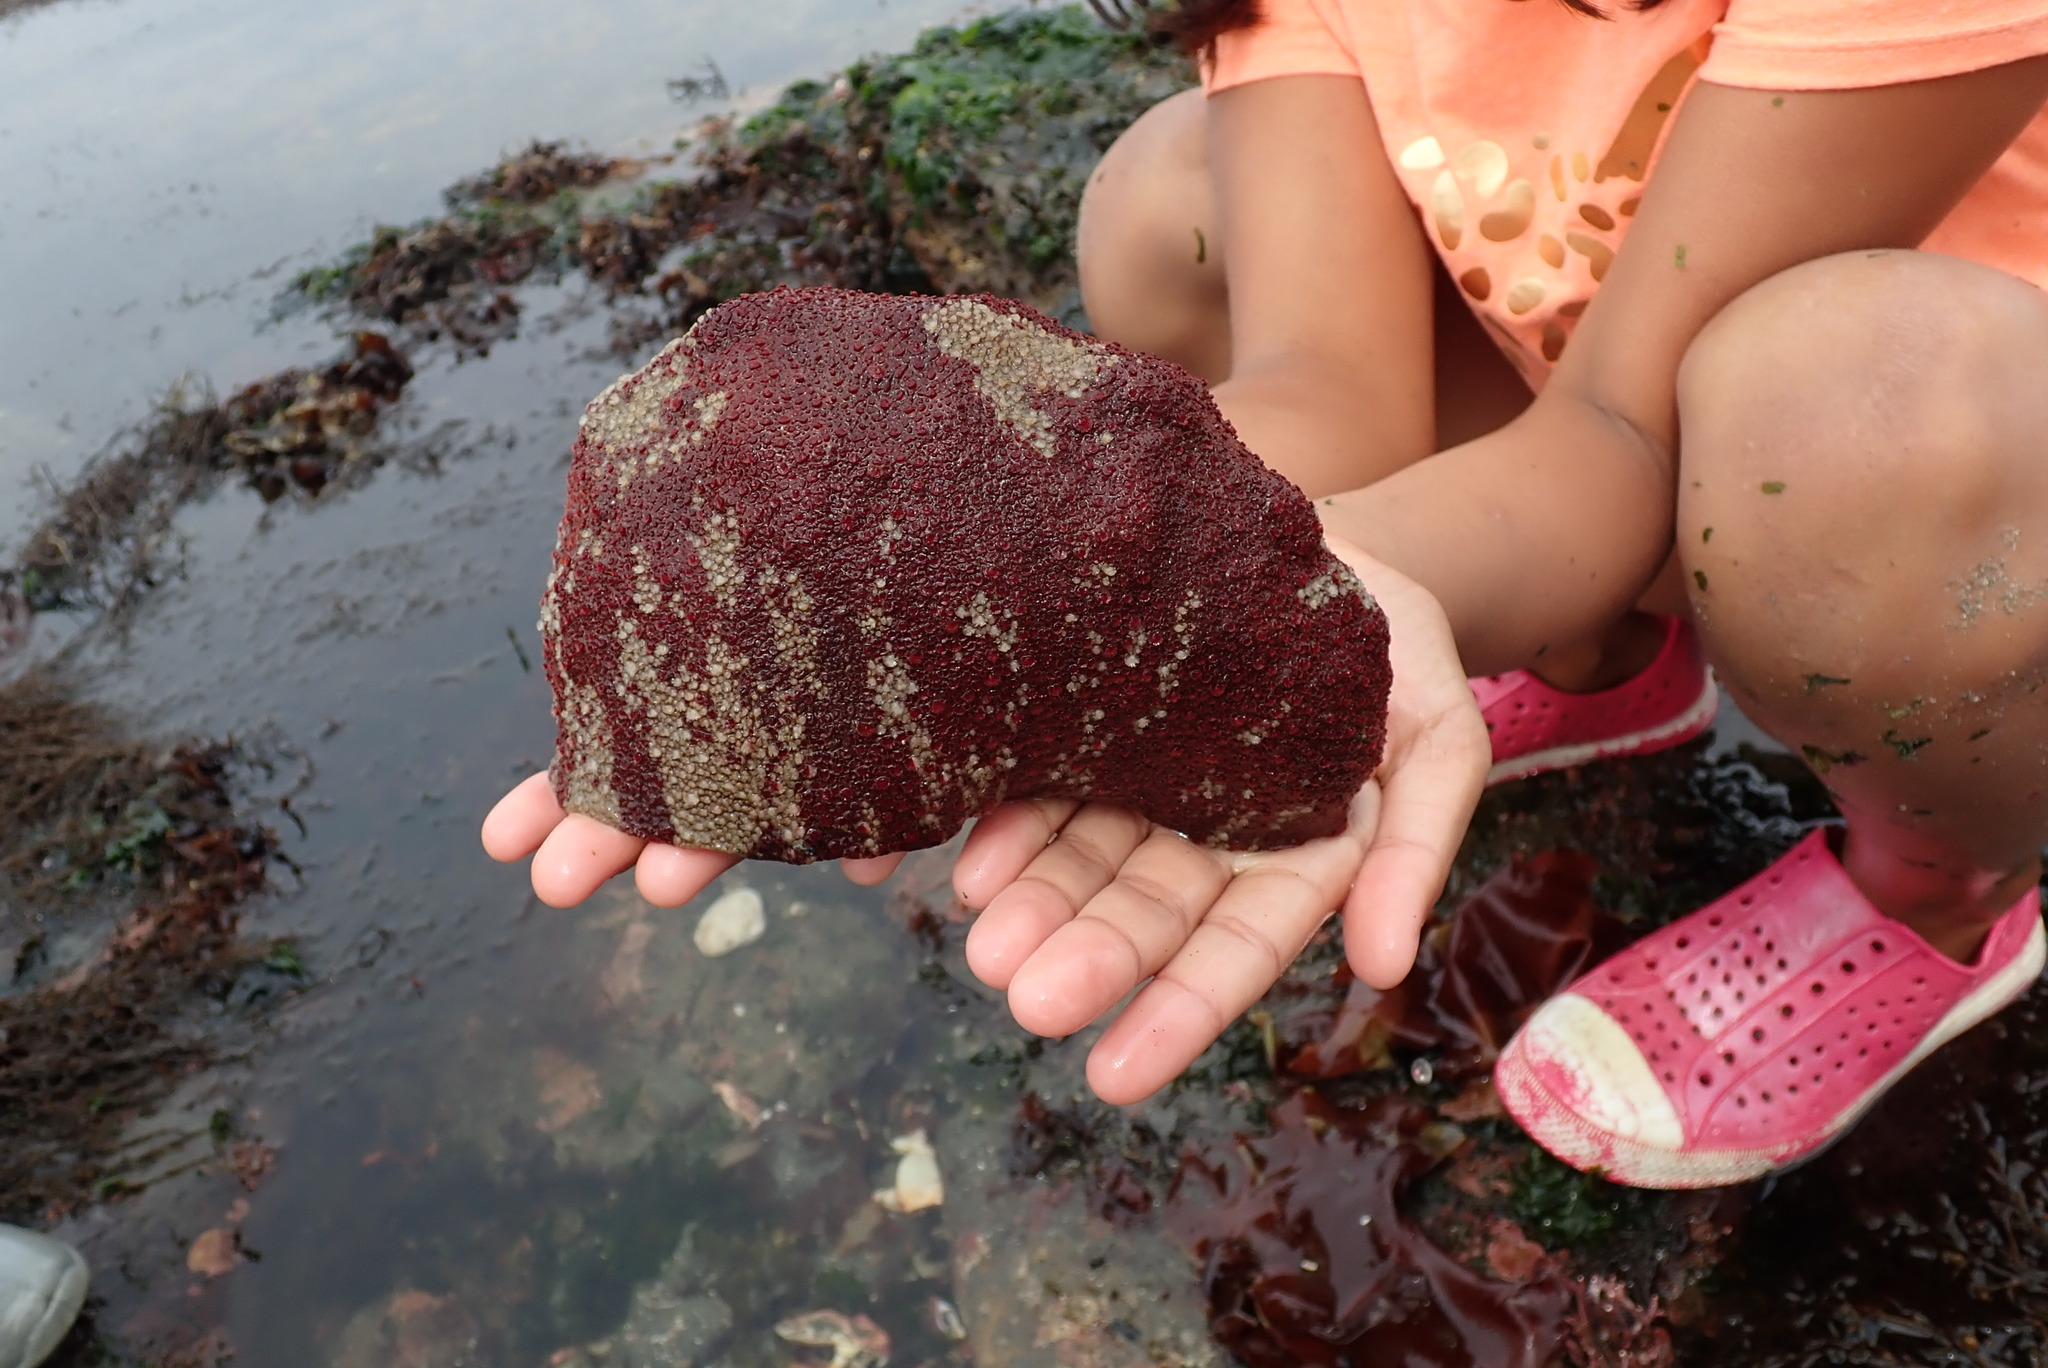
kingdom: Animalia
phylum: Mollusca
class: Polyplacophora
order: Chitonida
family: Acanthochitonidae
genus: Cryptochiton
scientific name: Cryptochiton stelleri
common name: Giant pacific chiton
